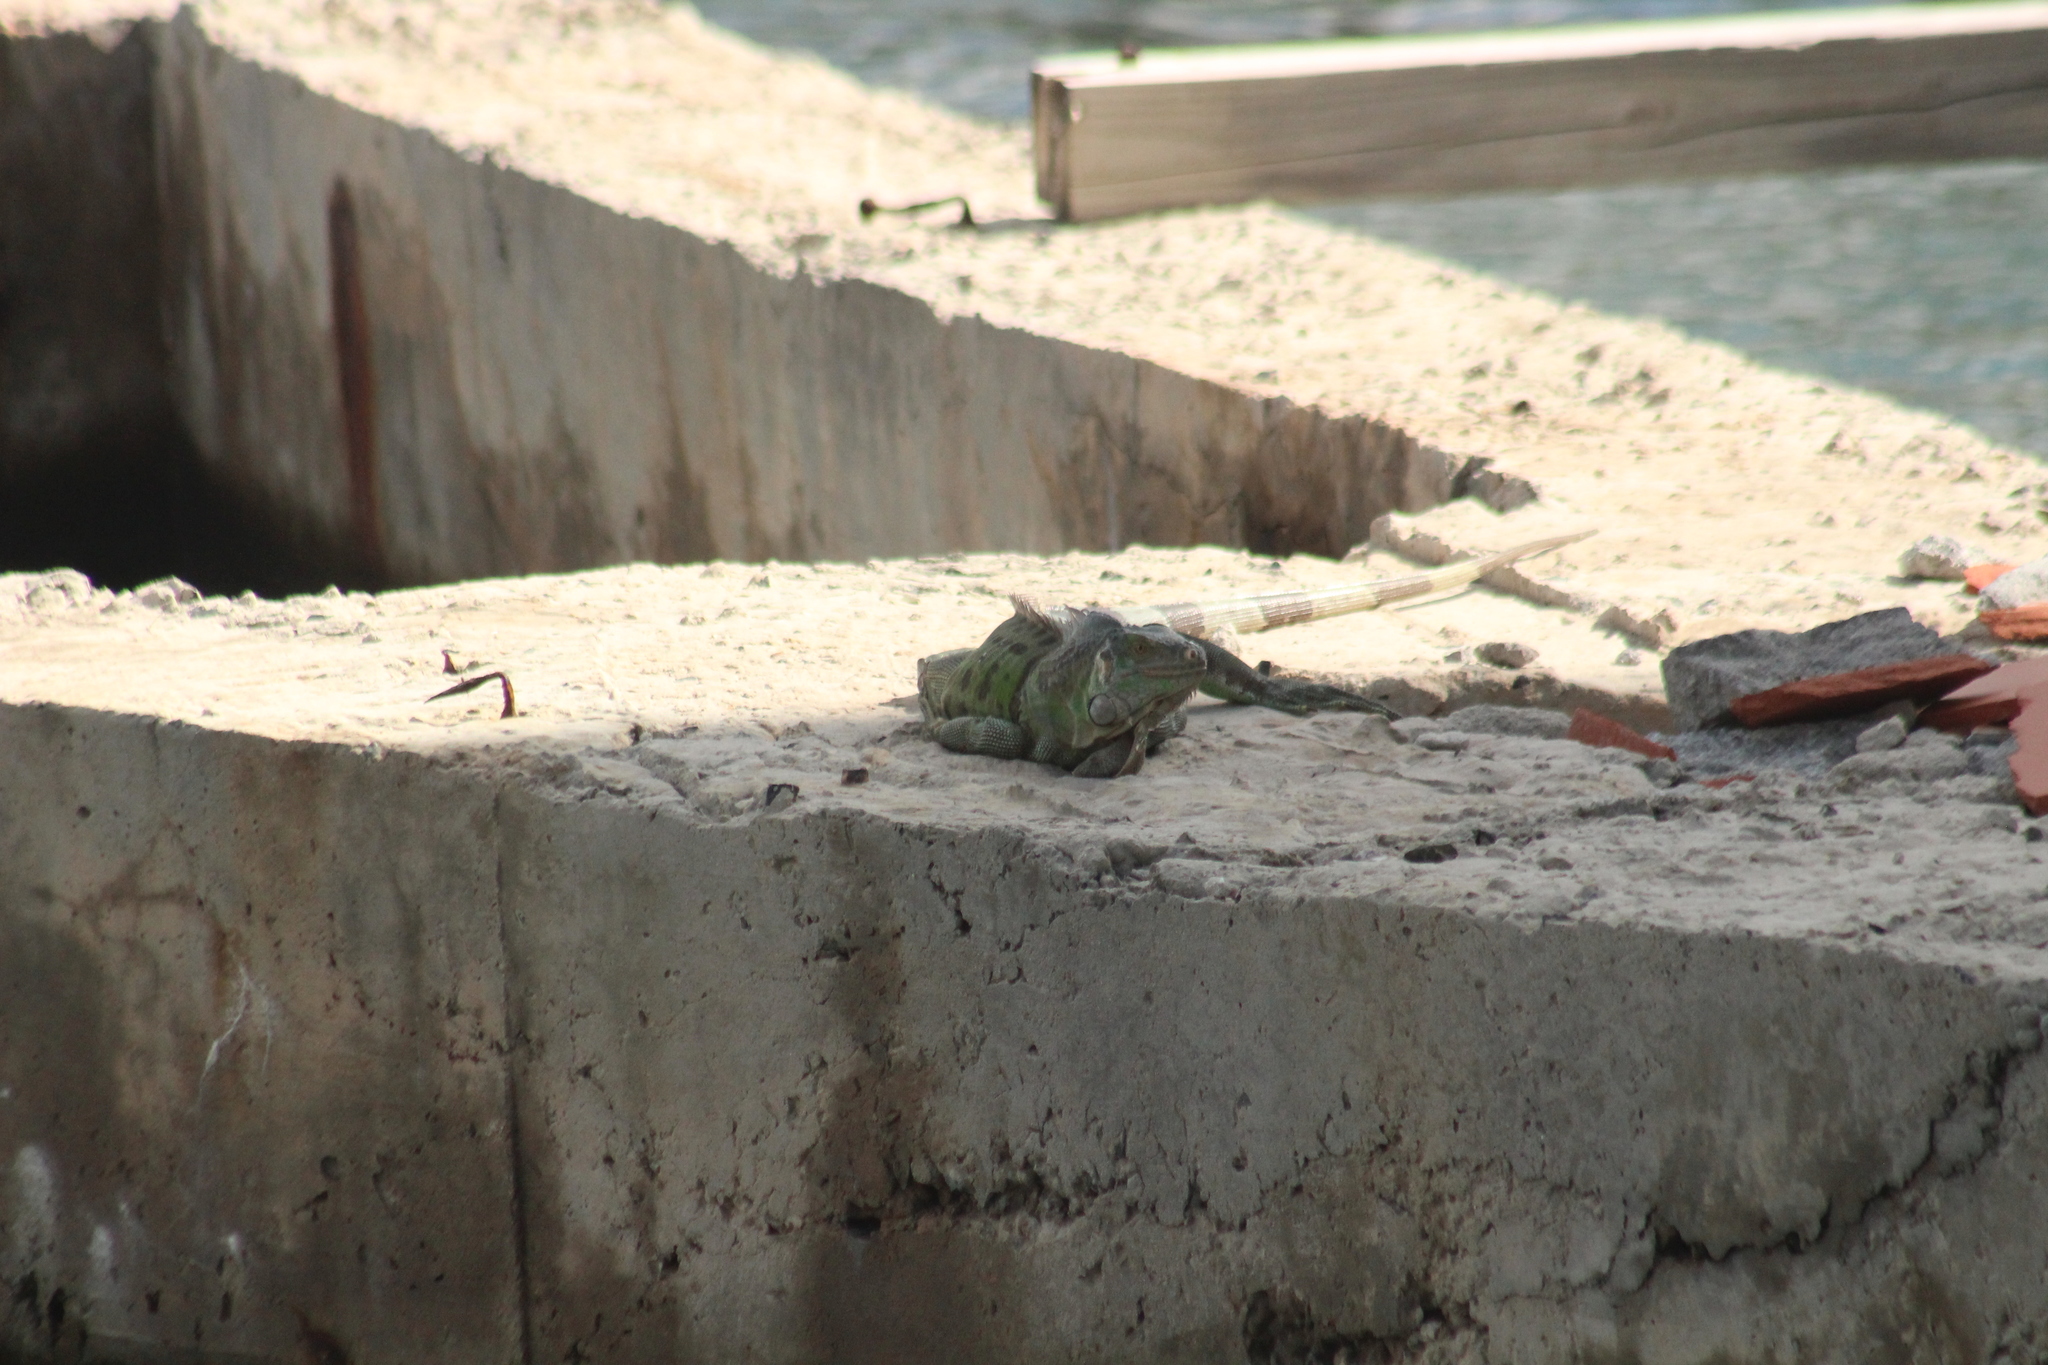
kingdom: Animalia
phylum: Chordata
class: Squamata
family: Iguanidae
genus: Iguana
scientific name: Iguana iguana
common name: Green iguana
